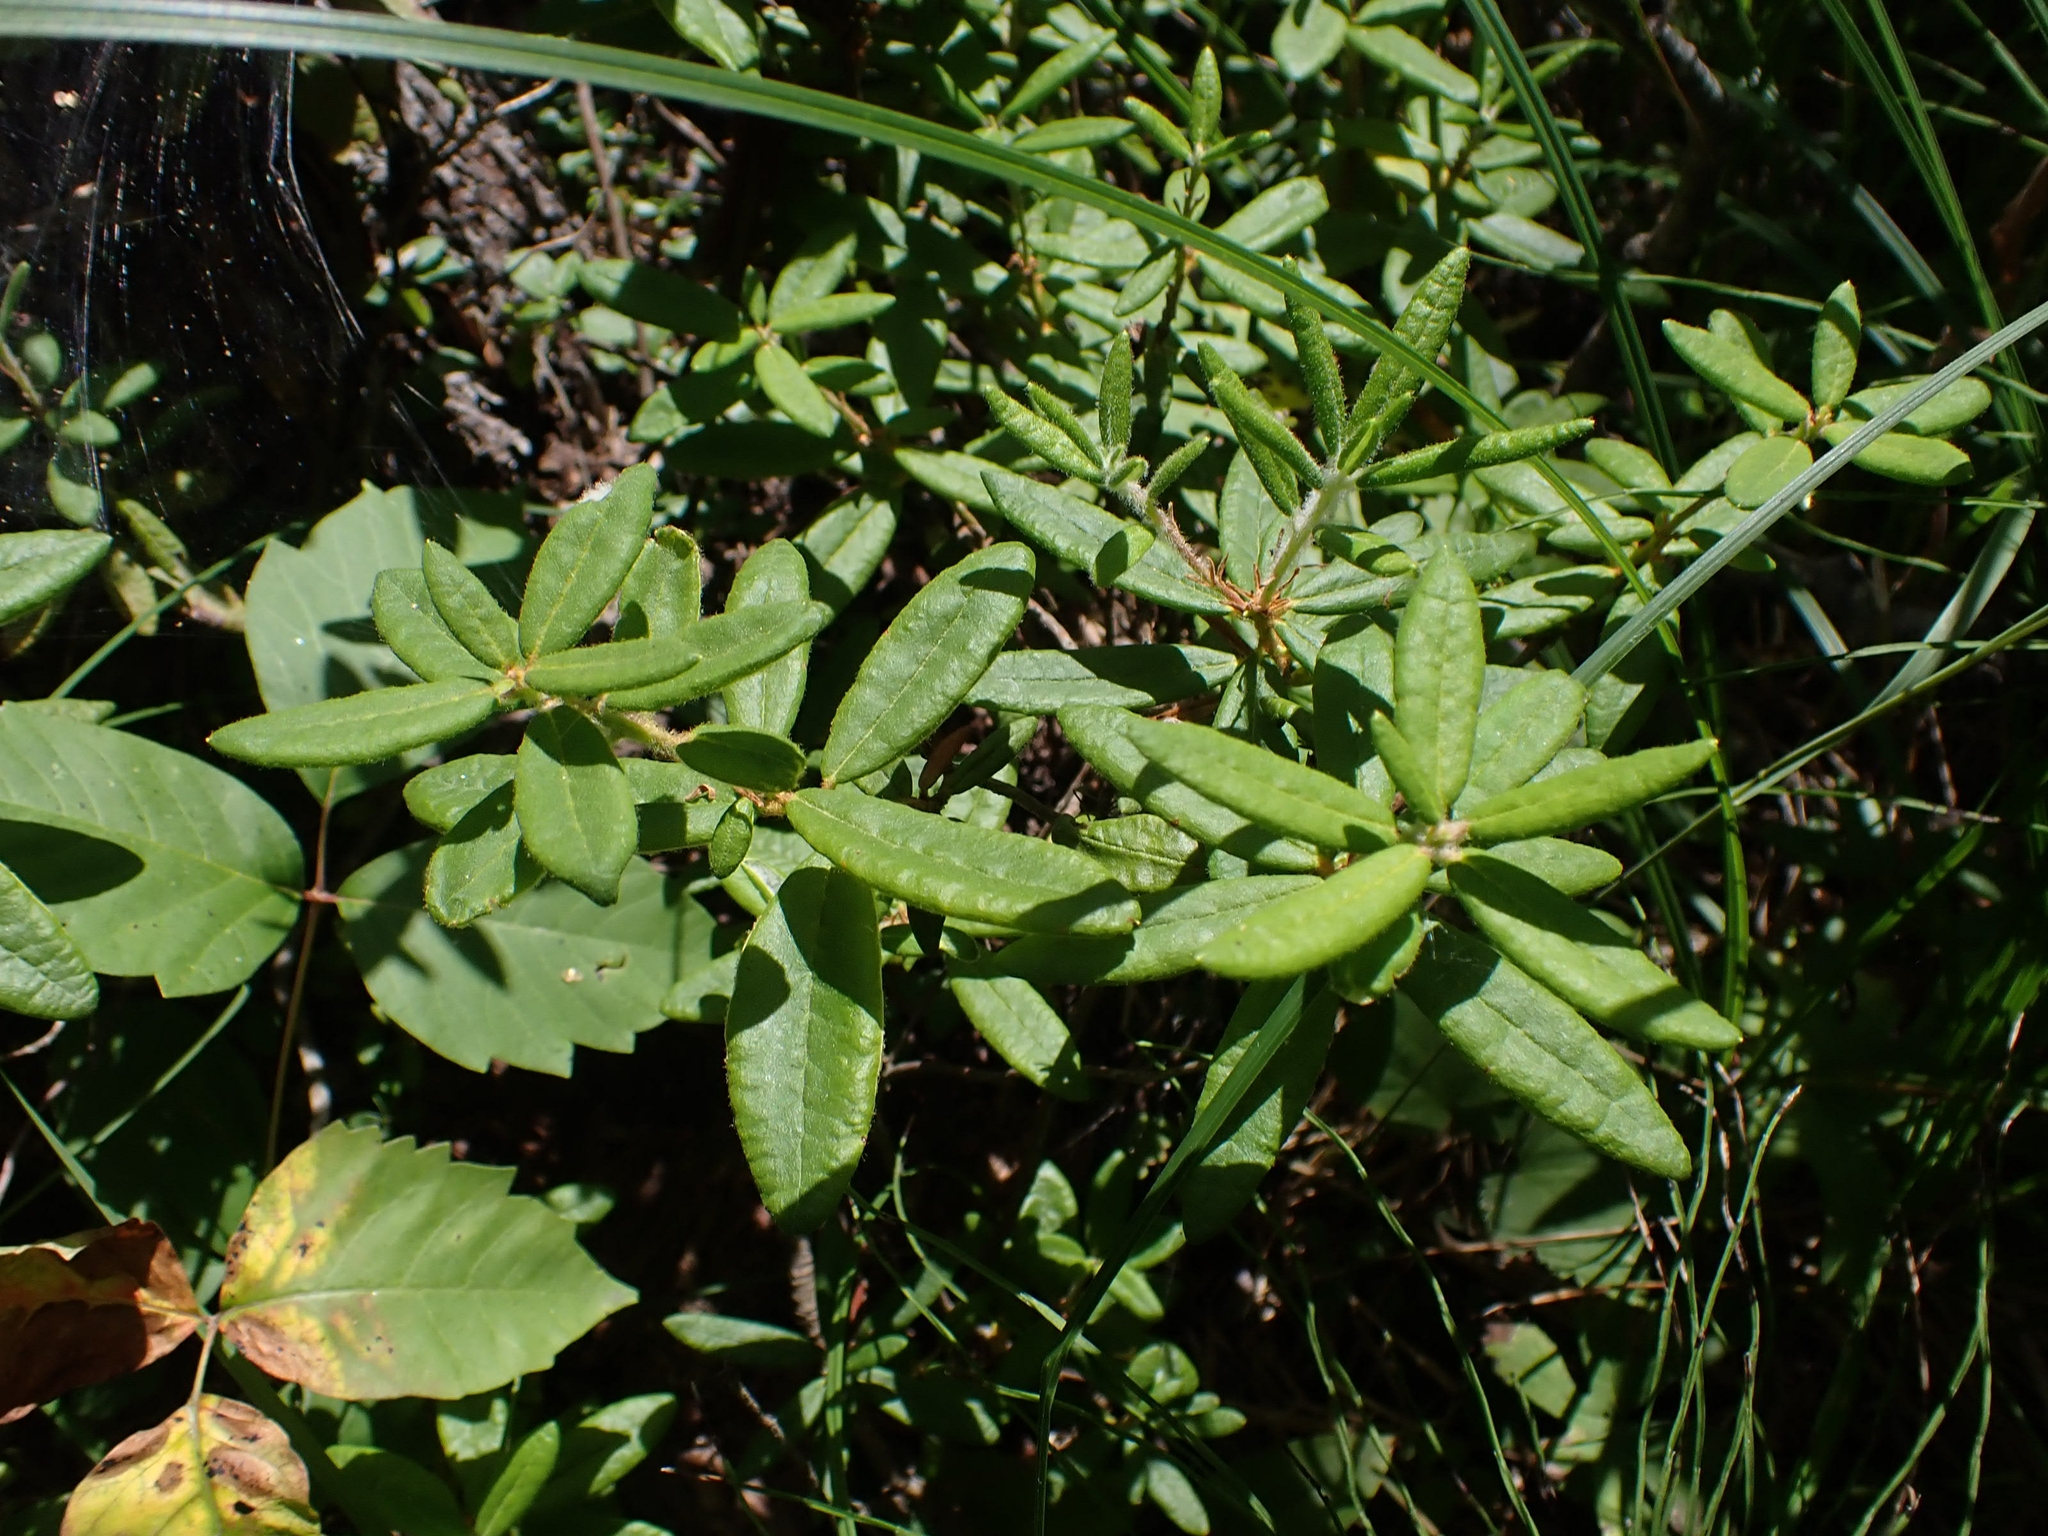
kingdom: Plantae
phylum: Tracheophyta
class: Magnoliopsida
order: Ericales
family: Ericaceae
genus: Rhododendron
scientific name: Rhododendron groenlandicum
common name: Bog labrador tea
